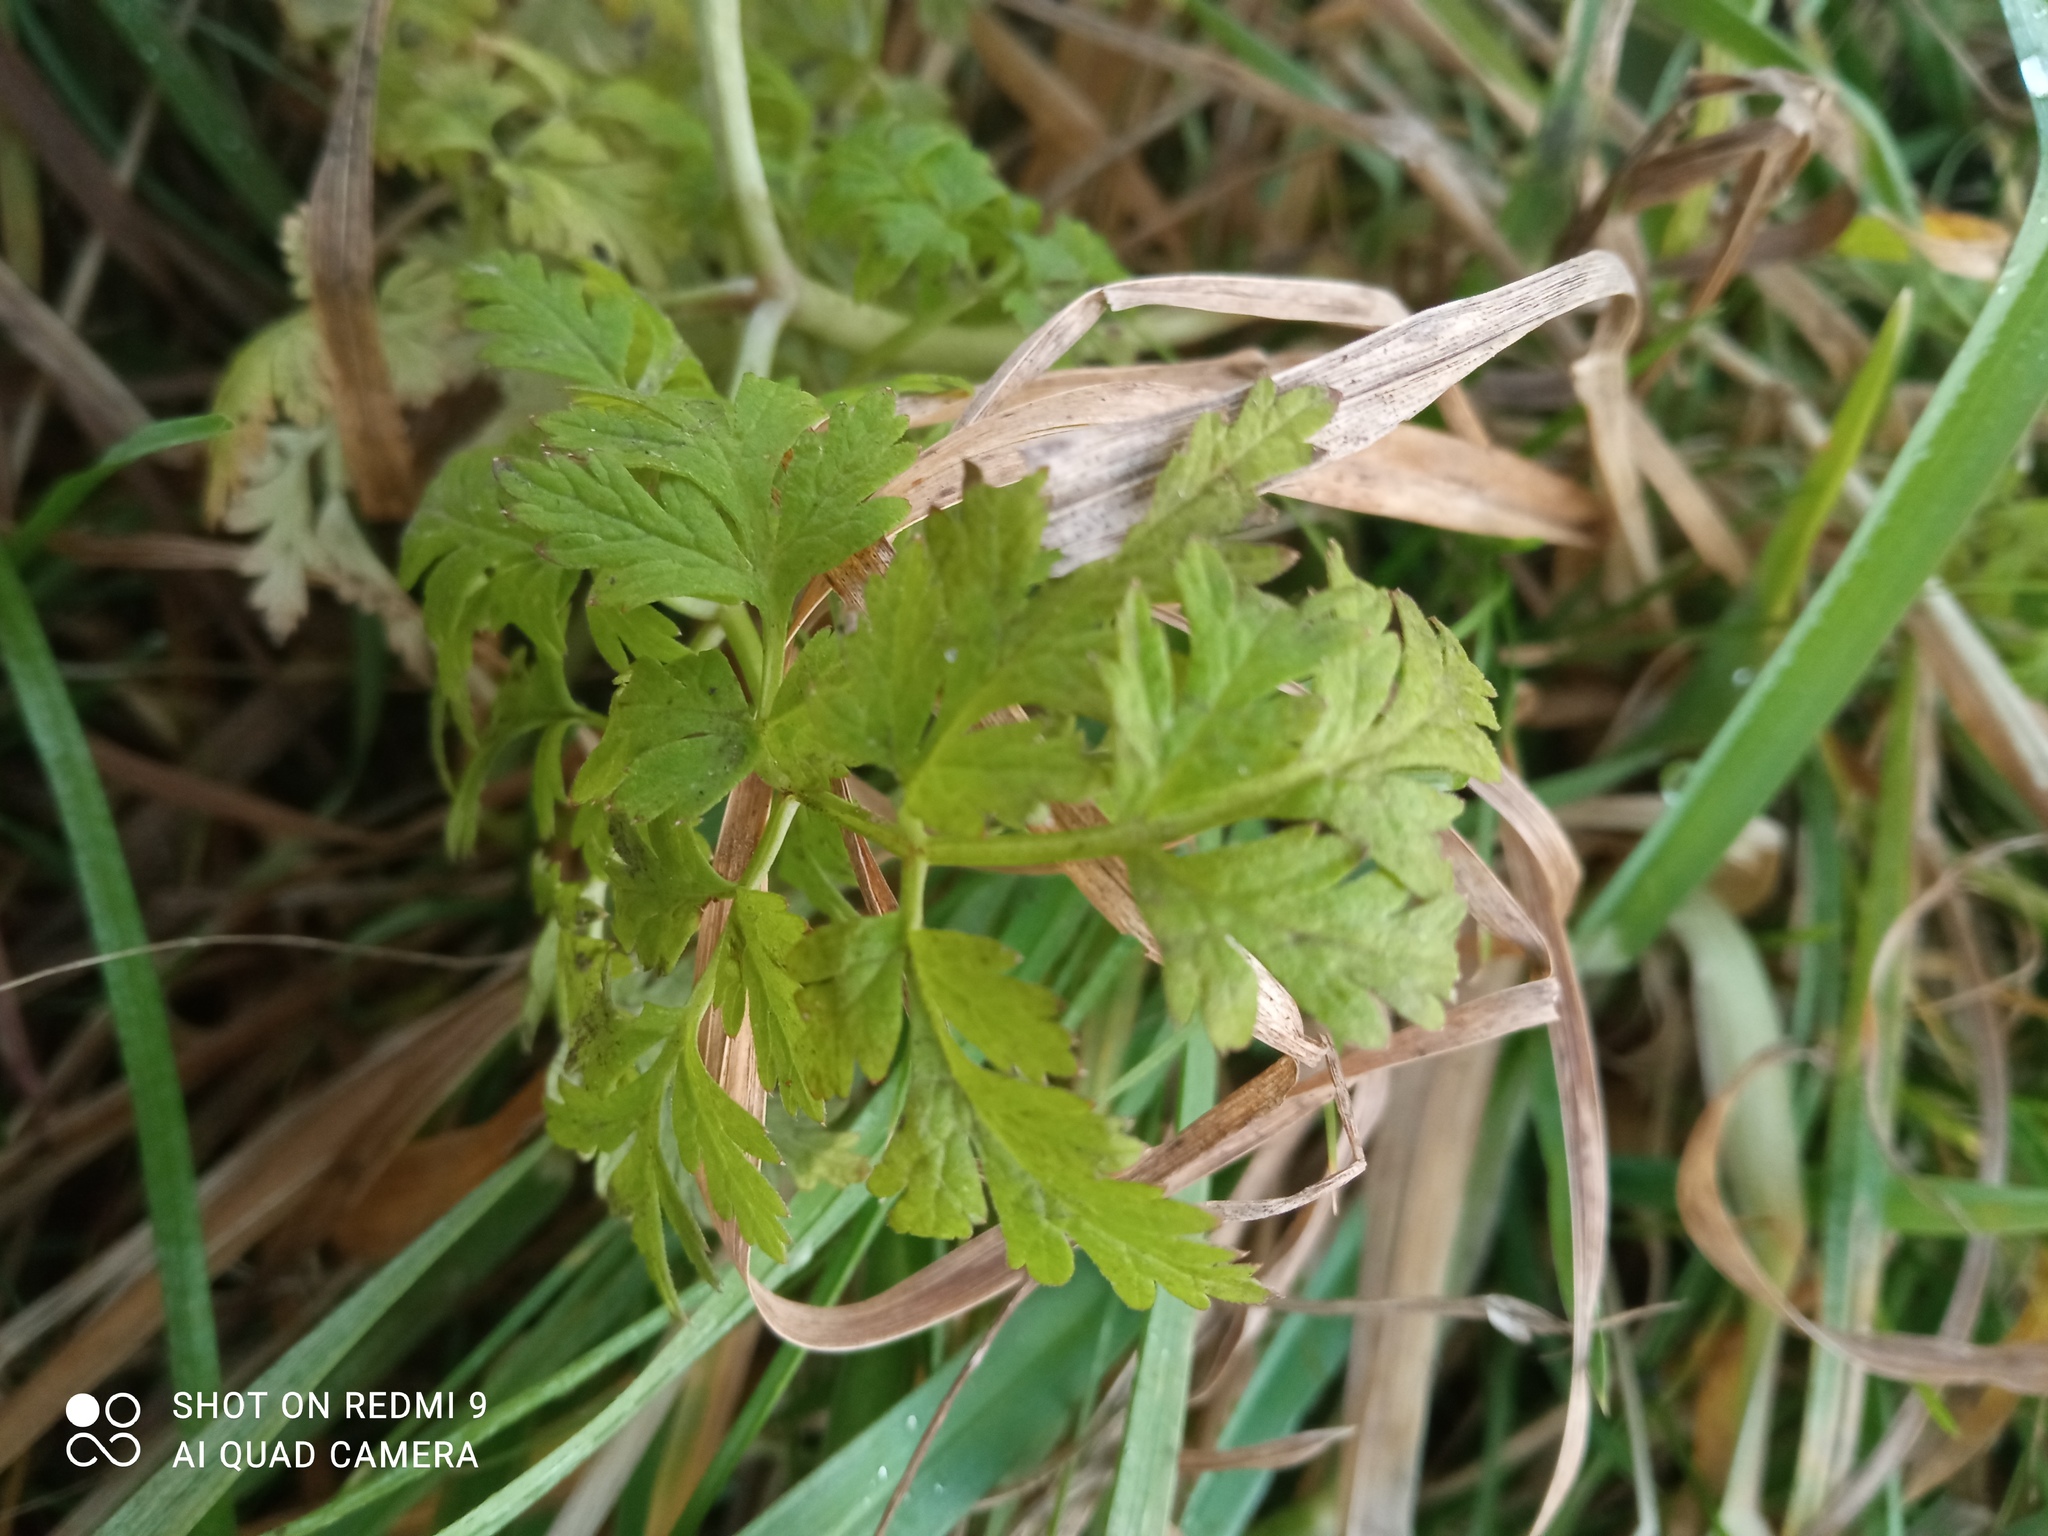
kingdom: Plantae
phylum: Tracheophyta
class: Magnoliopsida
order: Apiales
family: Apiaceae
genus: Anthriscus
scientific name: Anthriscus sylvestris
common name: Cow parsley
